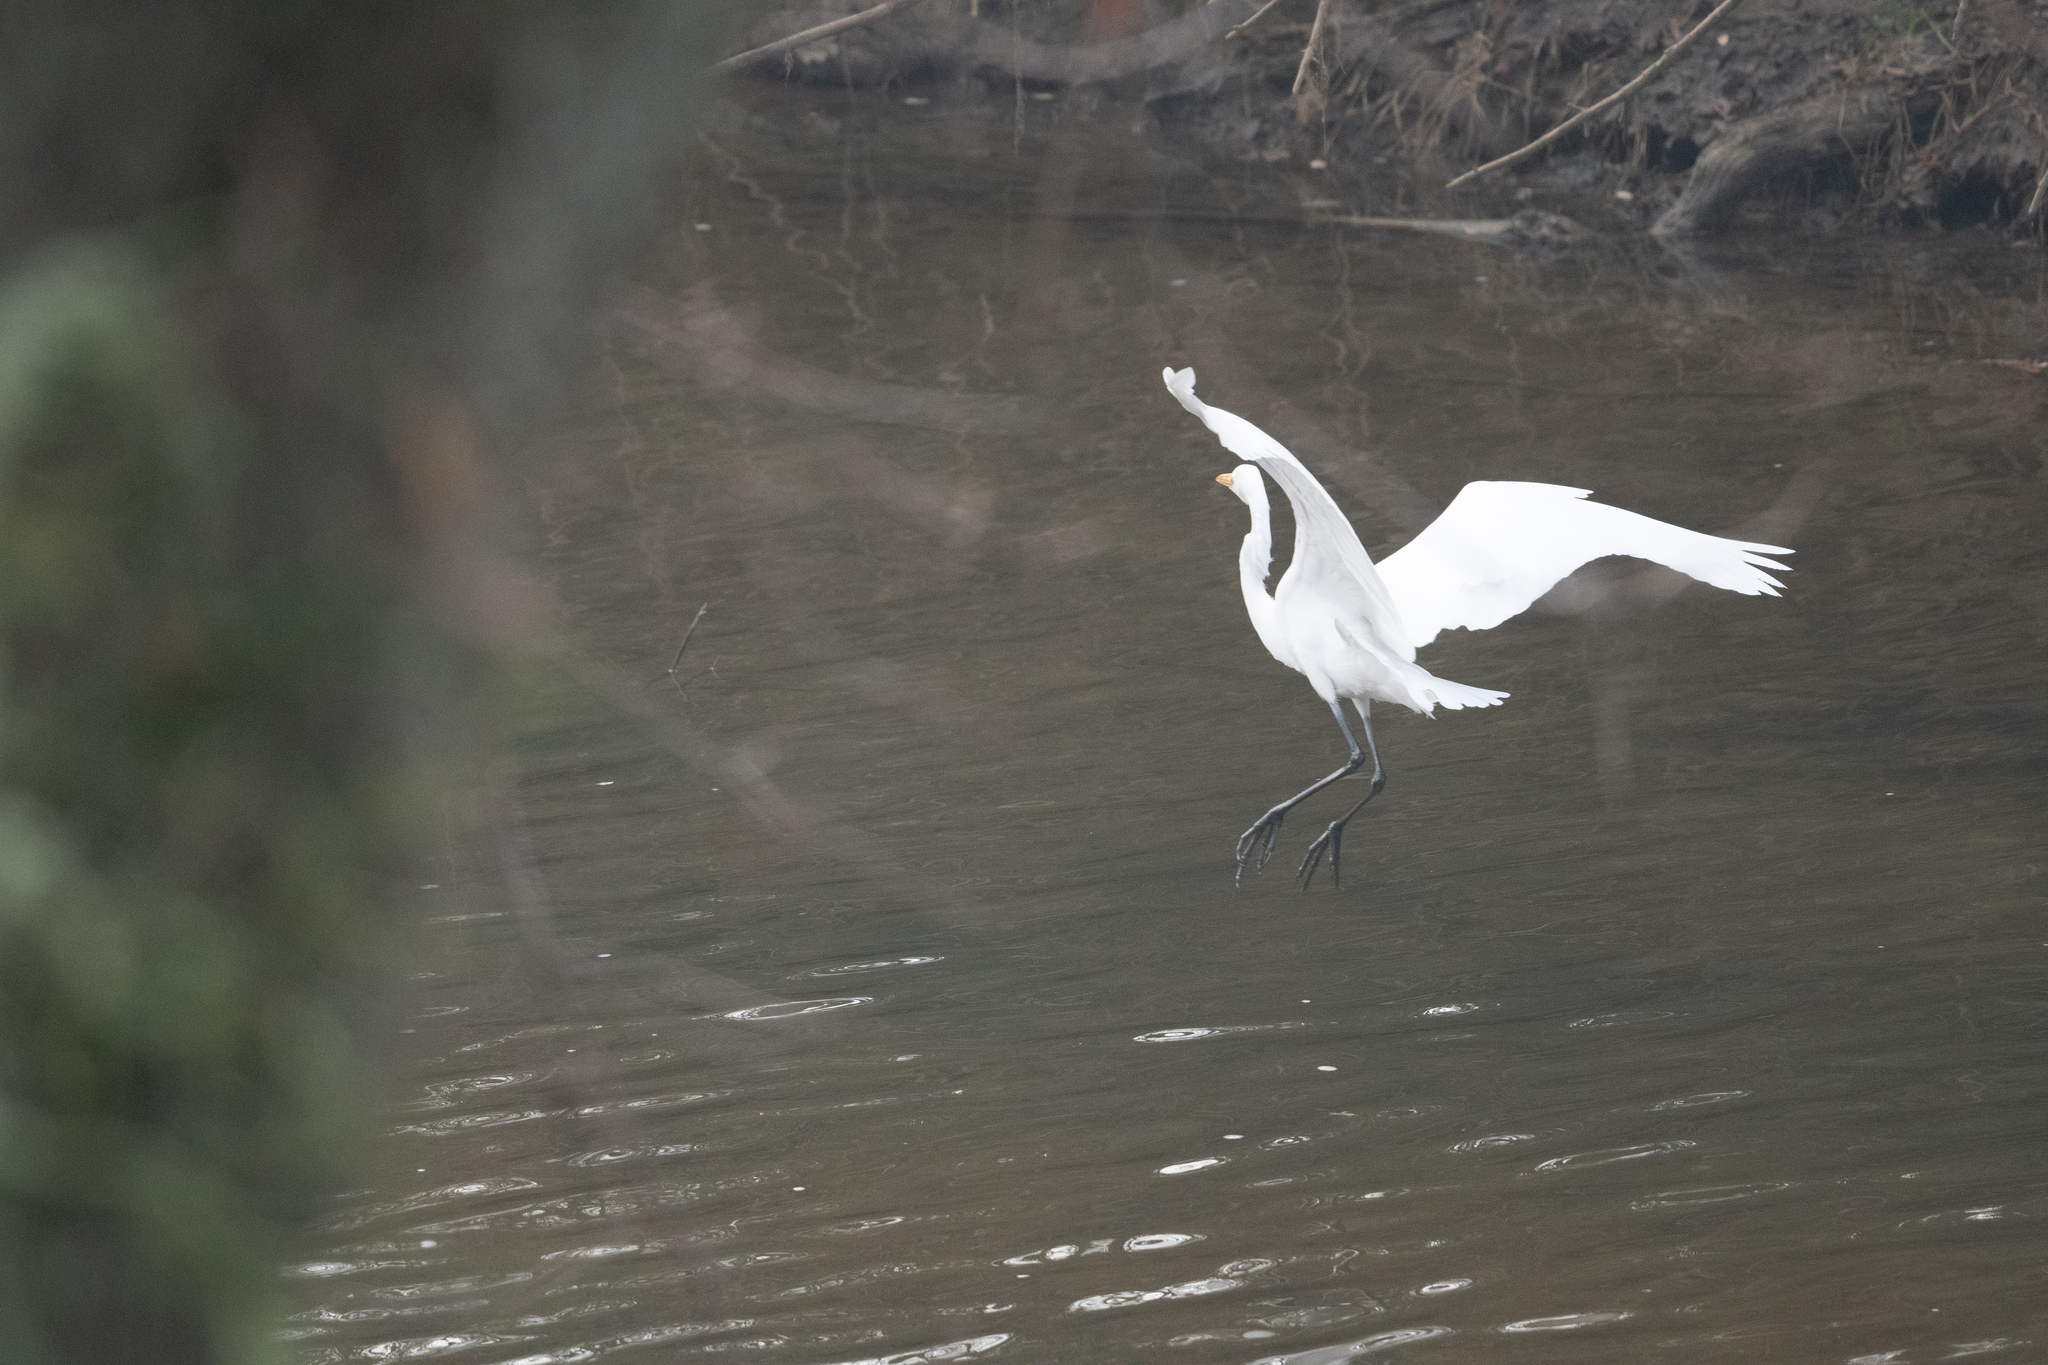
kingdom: Animalia
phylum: Chordata
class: Aves
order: Pelecaniformes
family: Ardeidae
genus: Ardea
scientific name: Ardea alba
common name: Great egret
